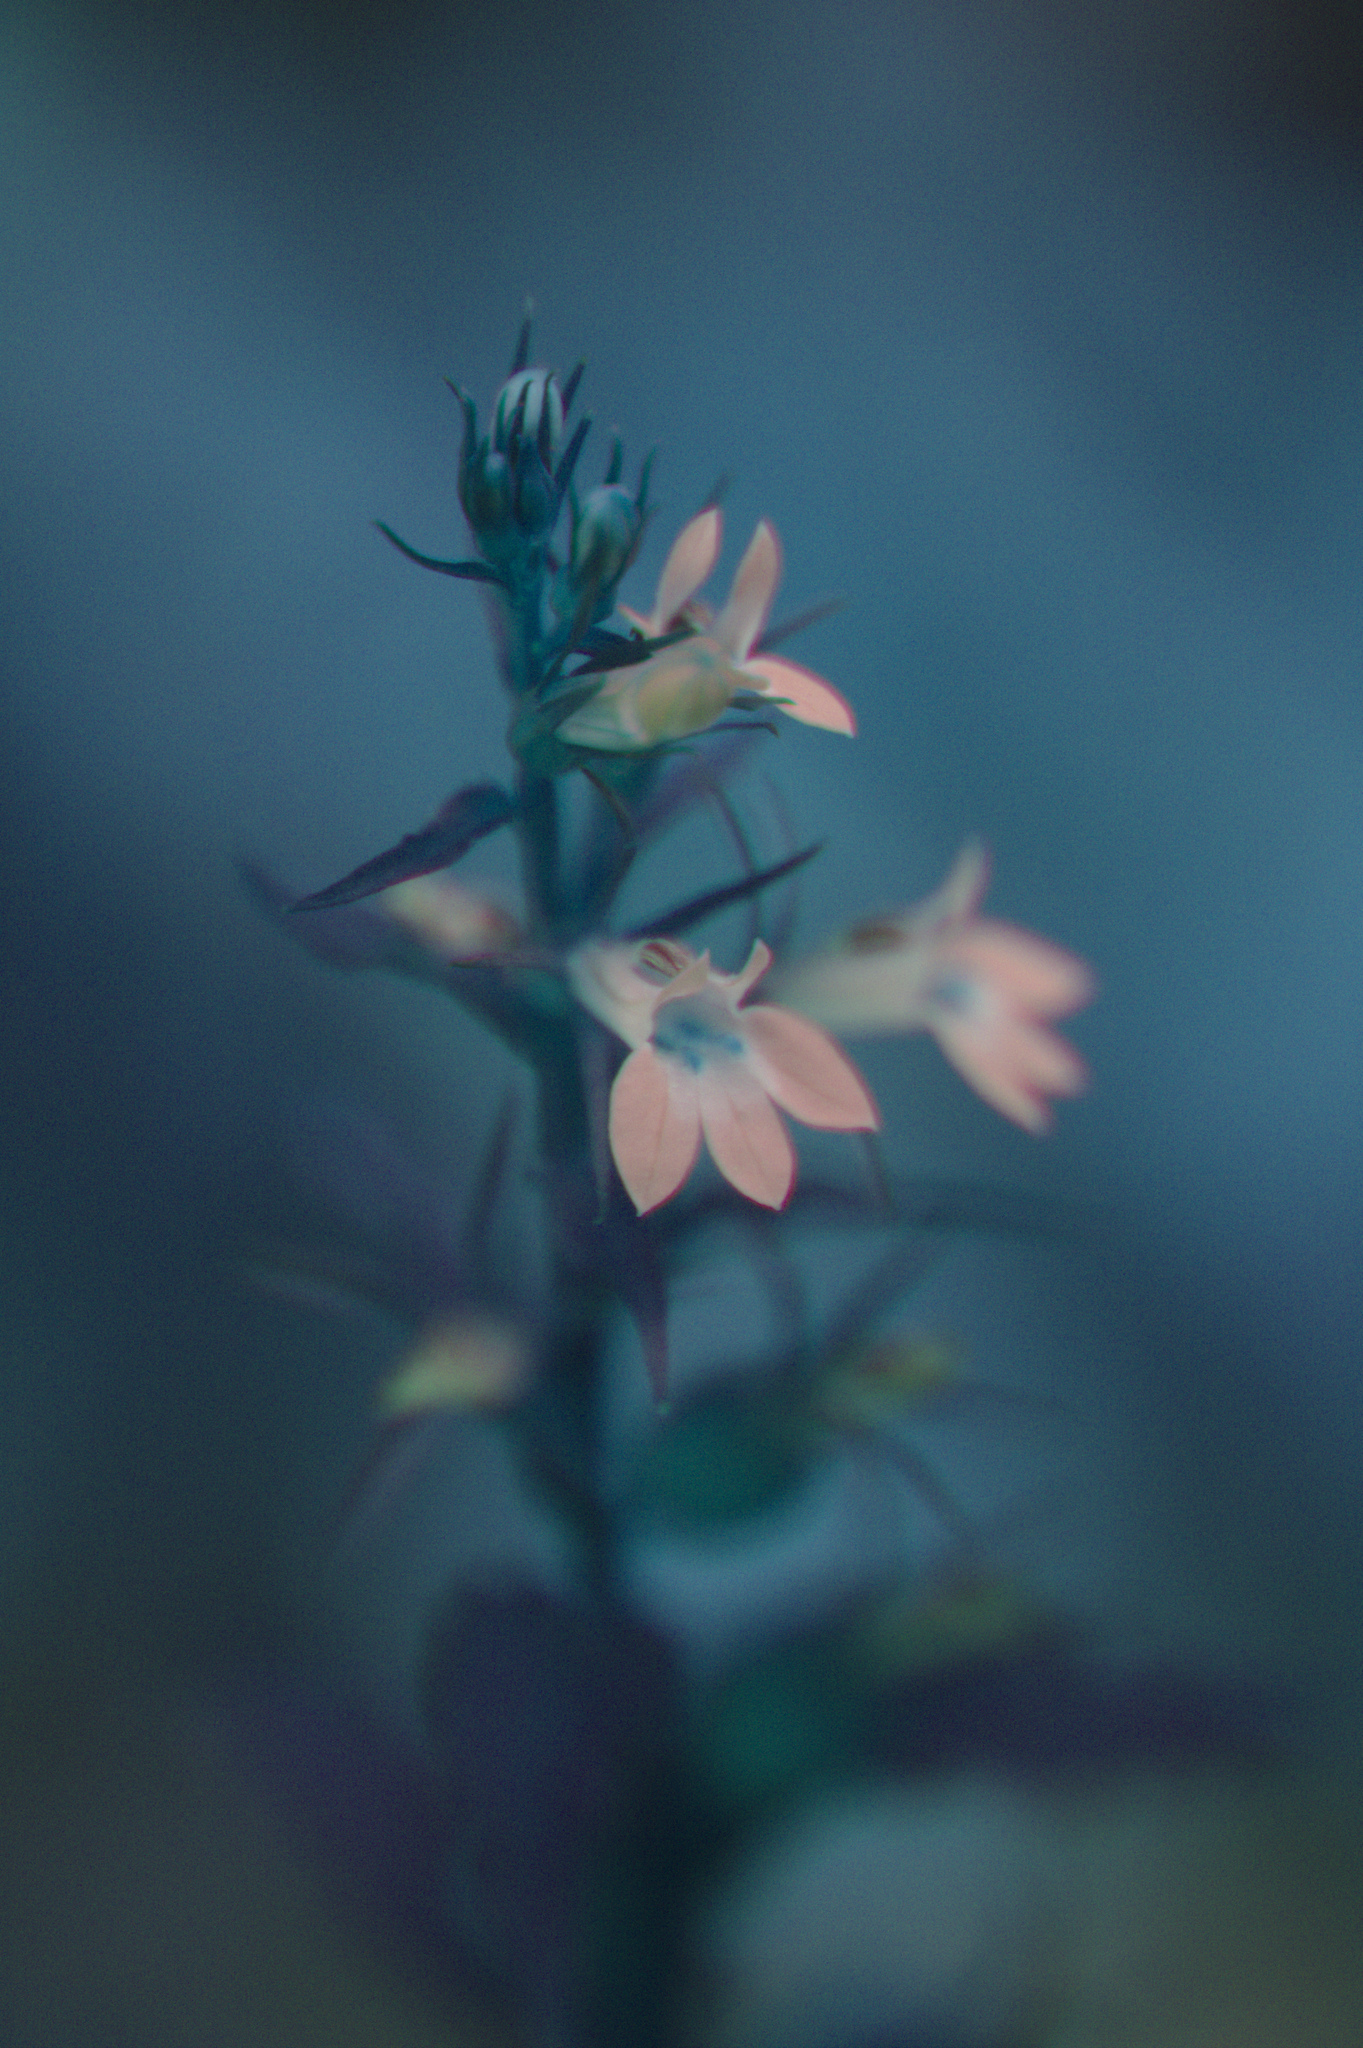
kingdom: Plantae
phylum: Tracheophyta
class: Magnoliopsida
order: Asterales
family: Campanulaceae
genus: Lobelia
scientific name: Lobelia inflata
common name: Indian tobacco
